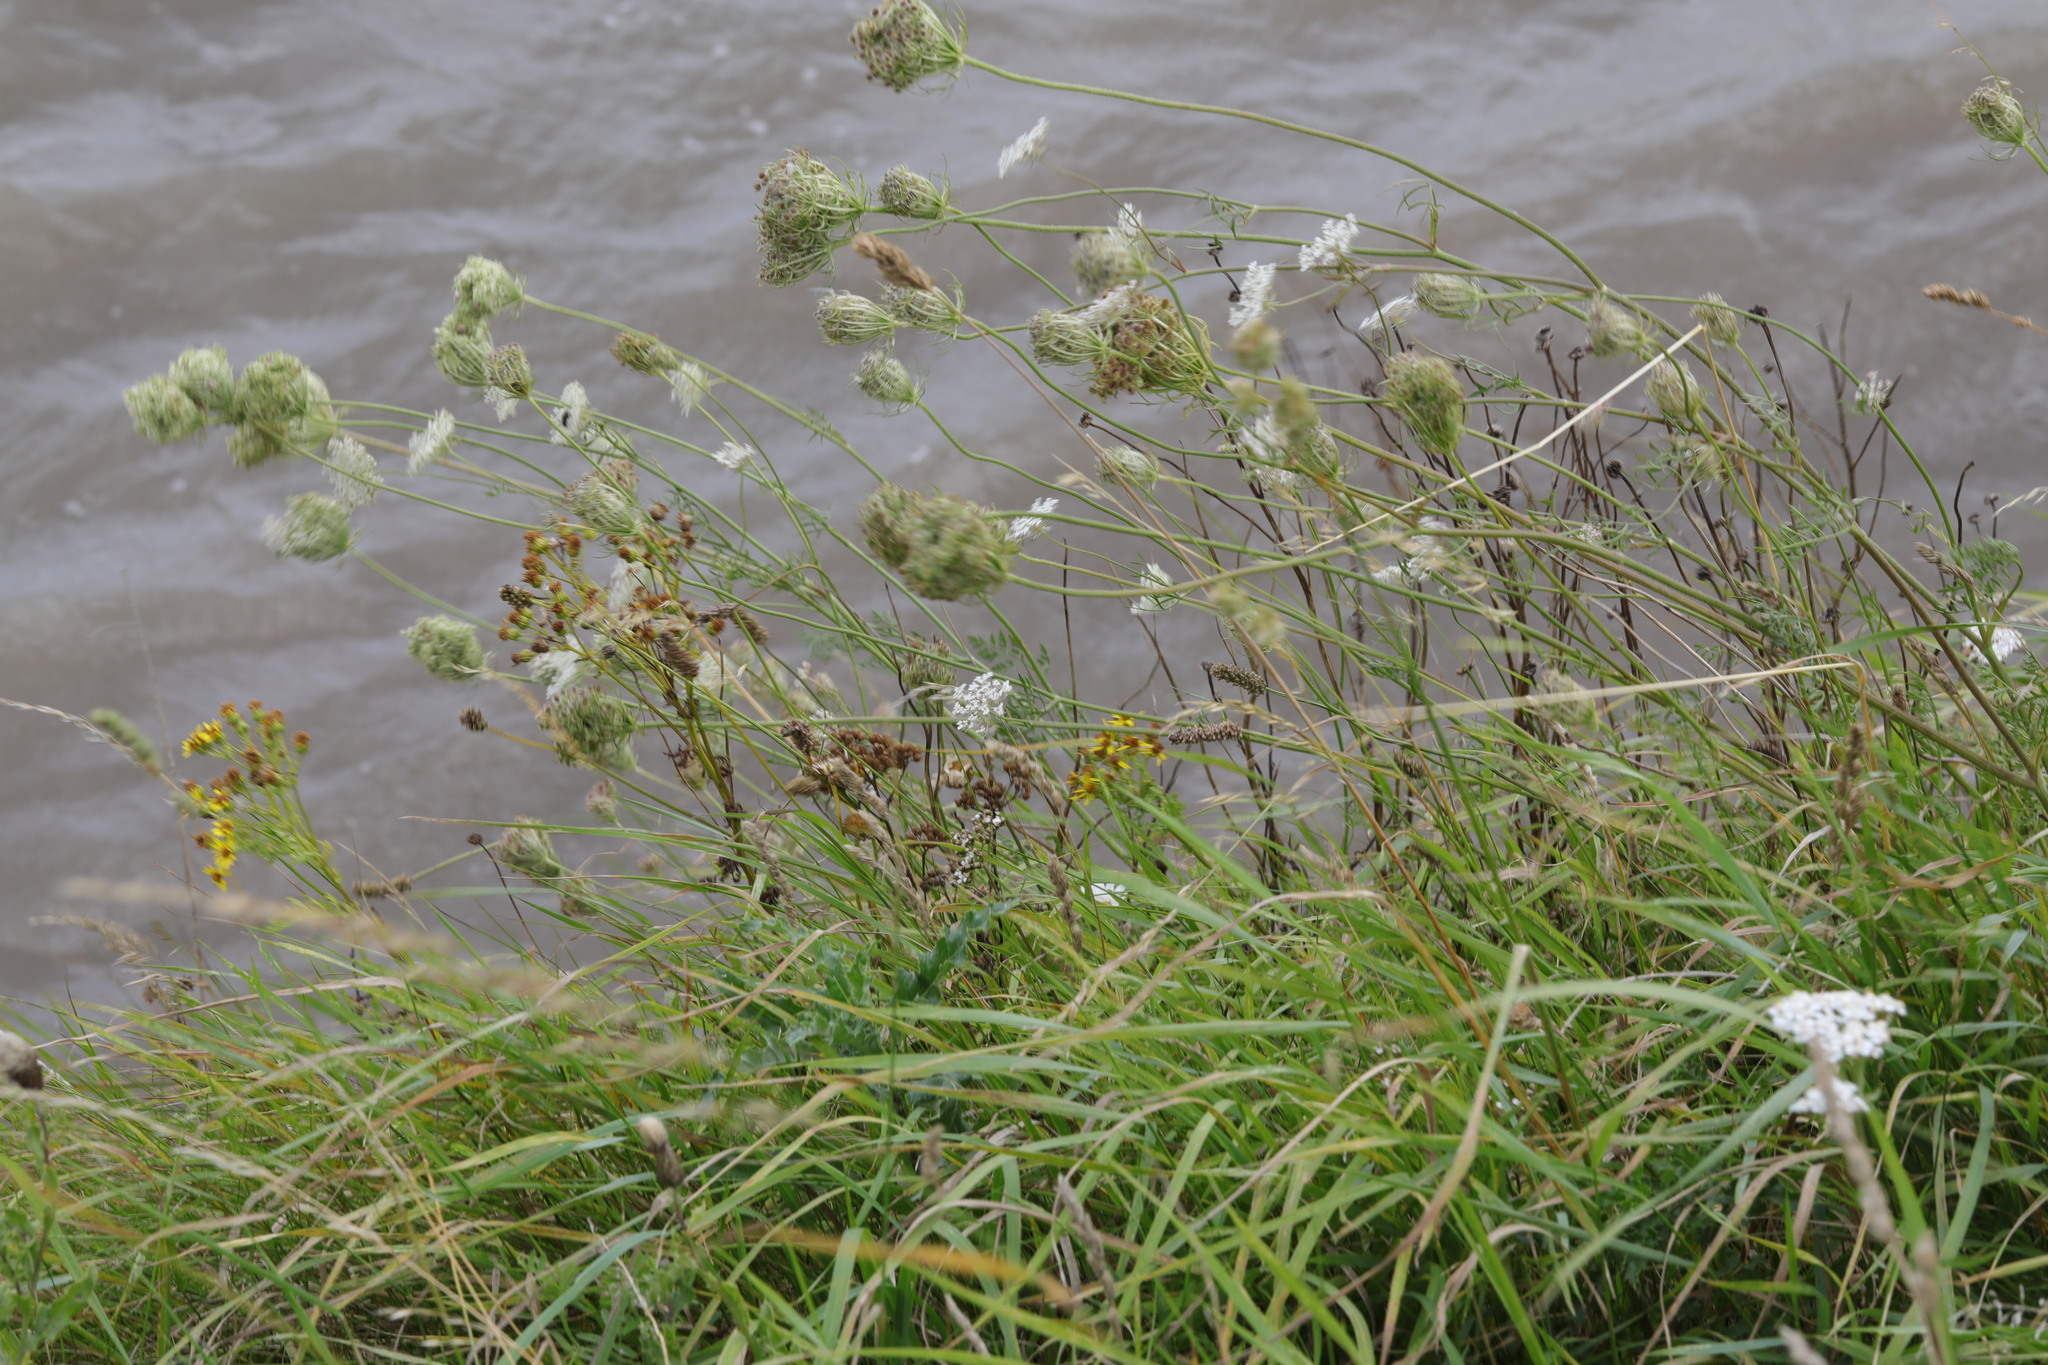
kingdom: Plantae
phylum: Tracheophyta
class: Magnoliopsida
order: Apiales
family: Apiaceae
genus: Daucus
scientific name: Daucus carota
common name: Wild carrot
